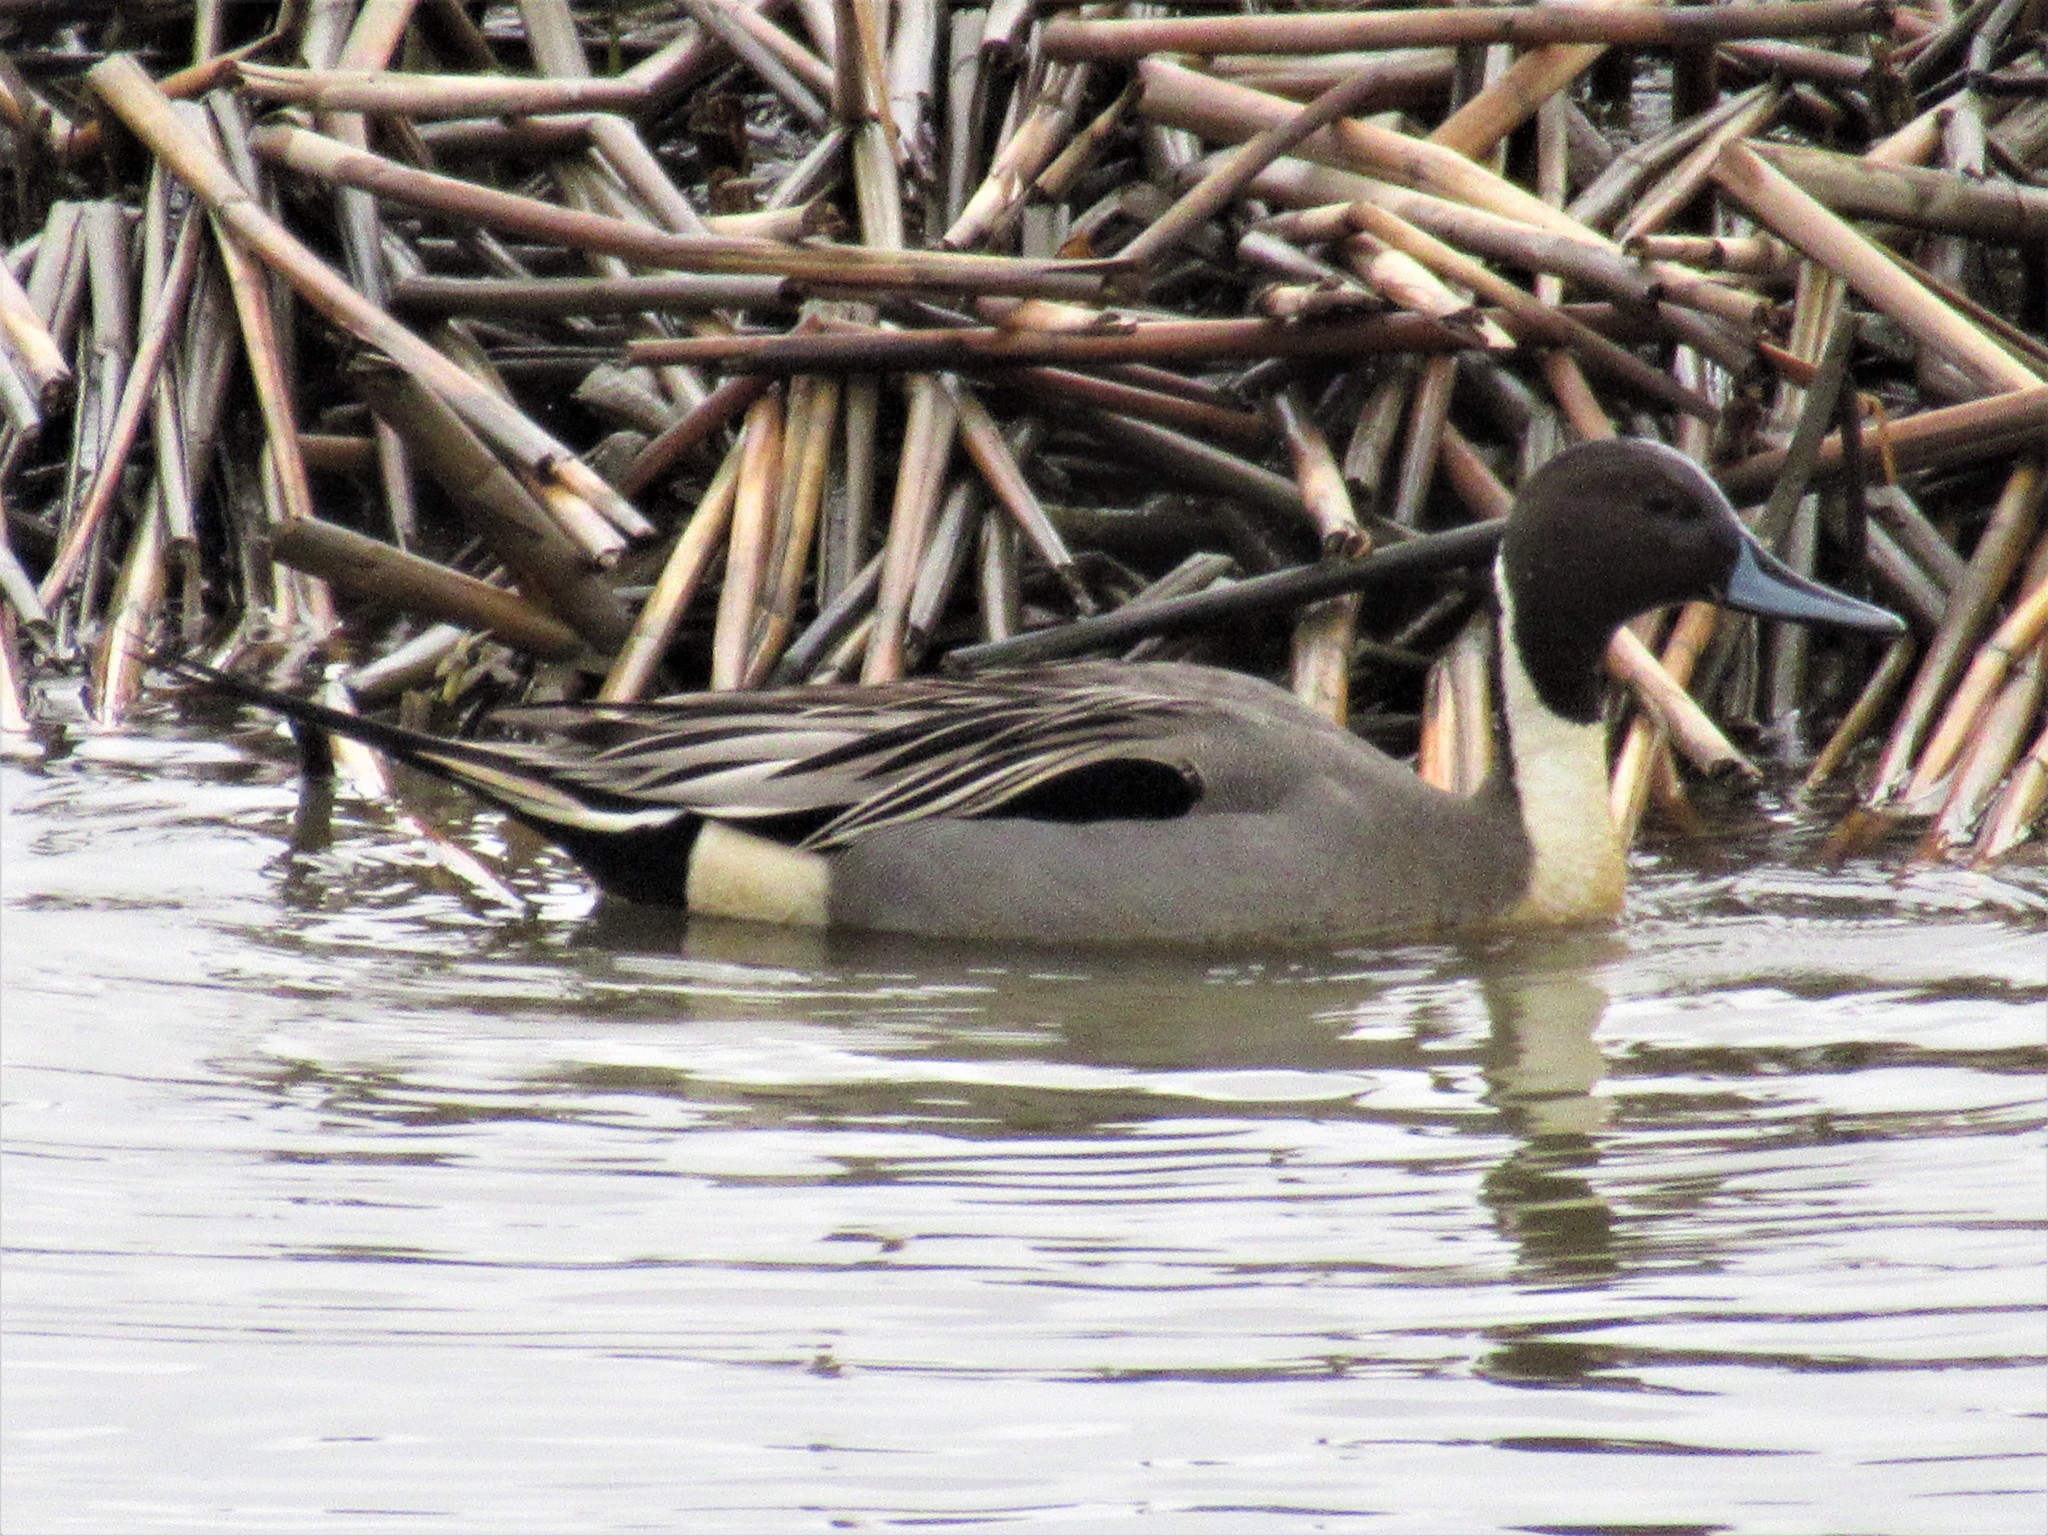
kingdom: Animalia
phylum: Chordata
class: Aves
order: Anseriformes
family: Anatidae
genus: Anas
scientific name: Anas acuta
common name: Northern pintail
